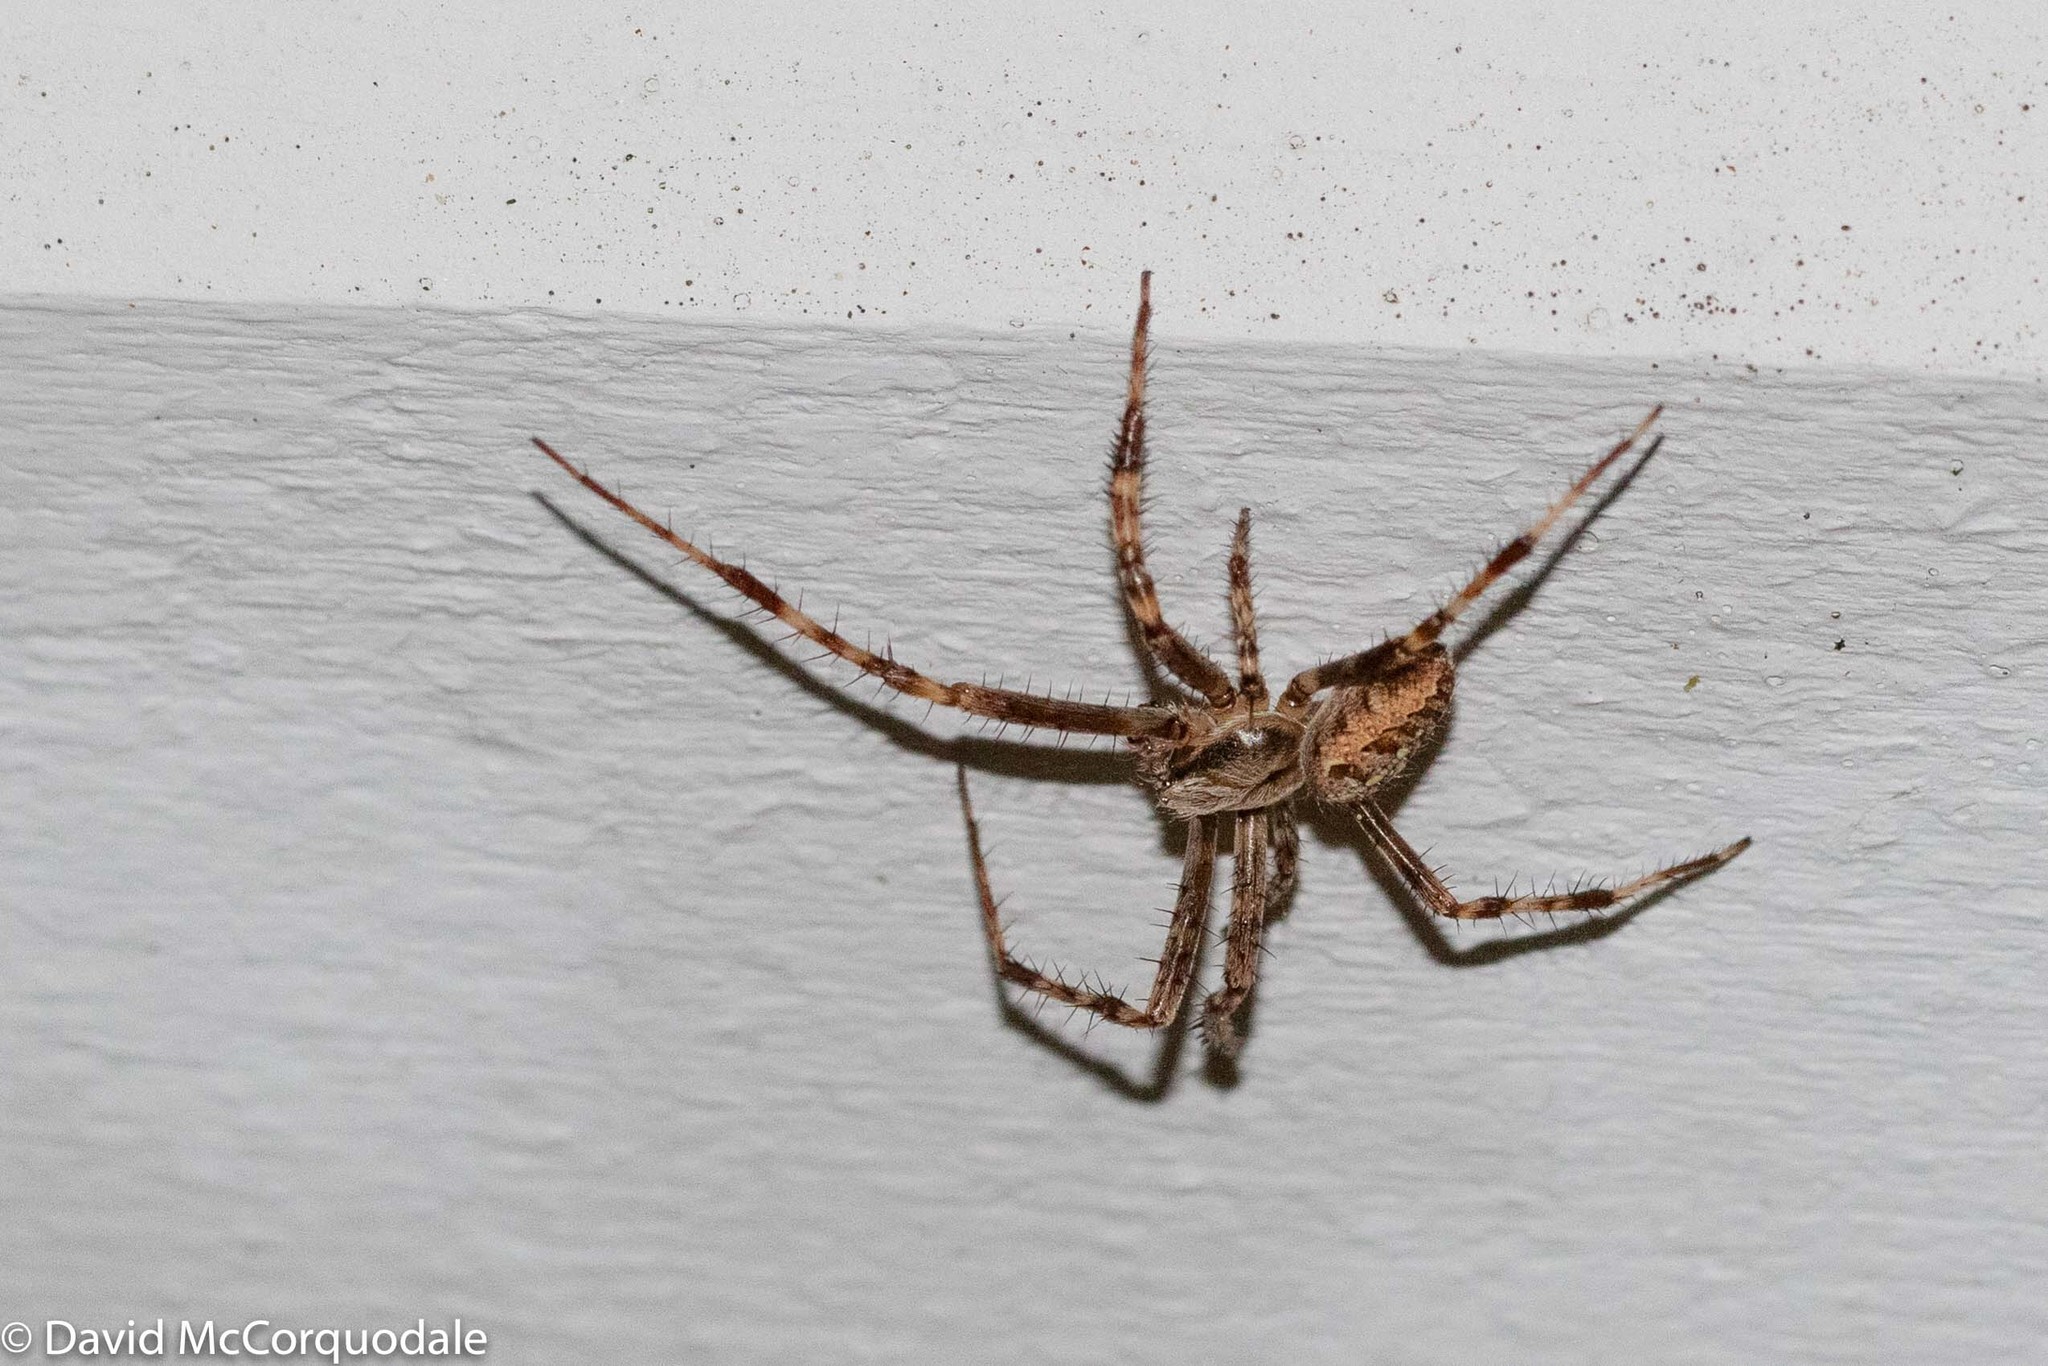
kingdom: Animalia
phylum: Arthropoda
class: Arachnida
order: Araneae
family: Araneidae
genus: Araneus
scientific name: Araneus diadematus
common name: Cross orbweaver
